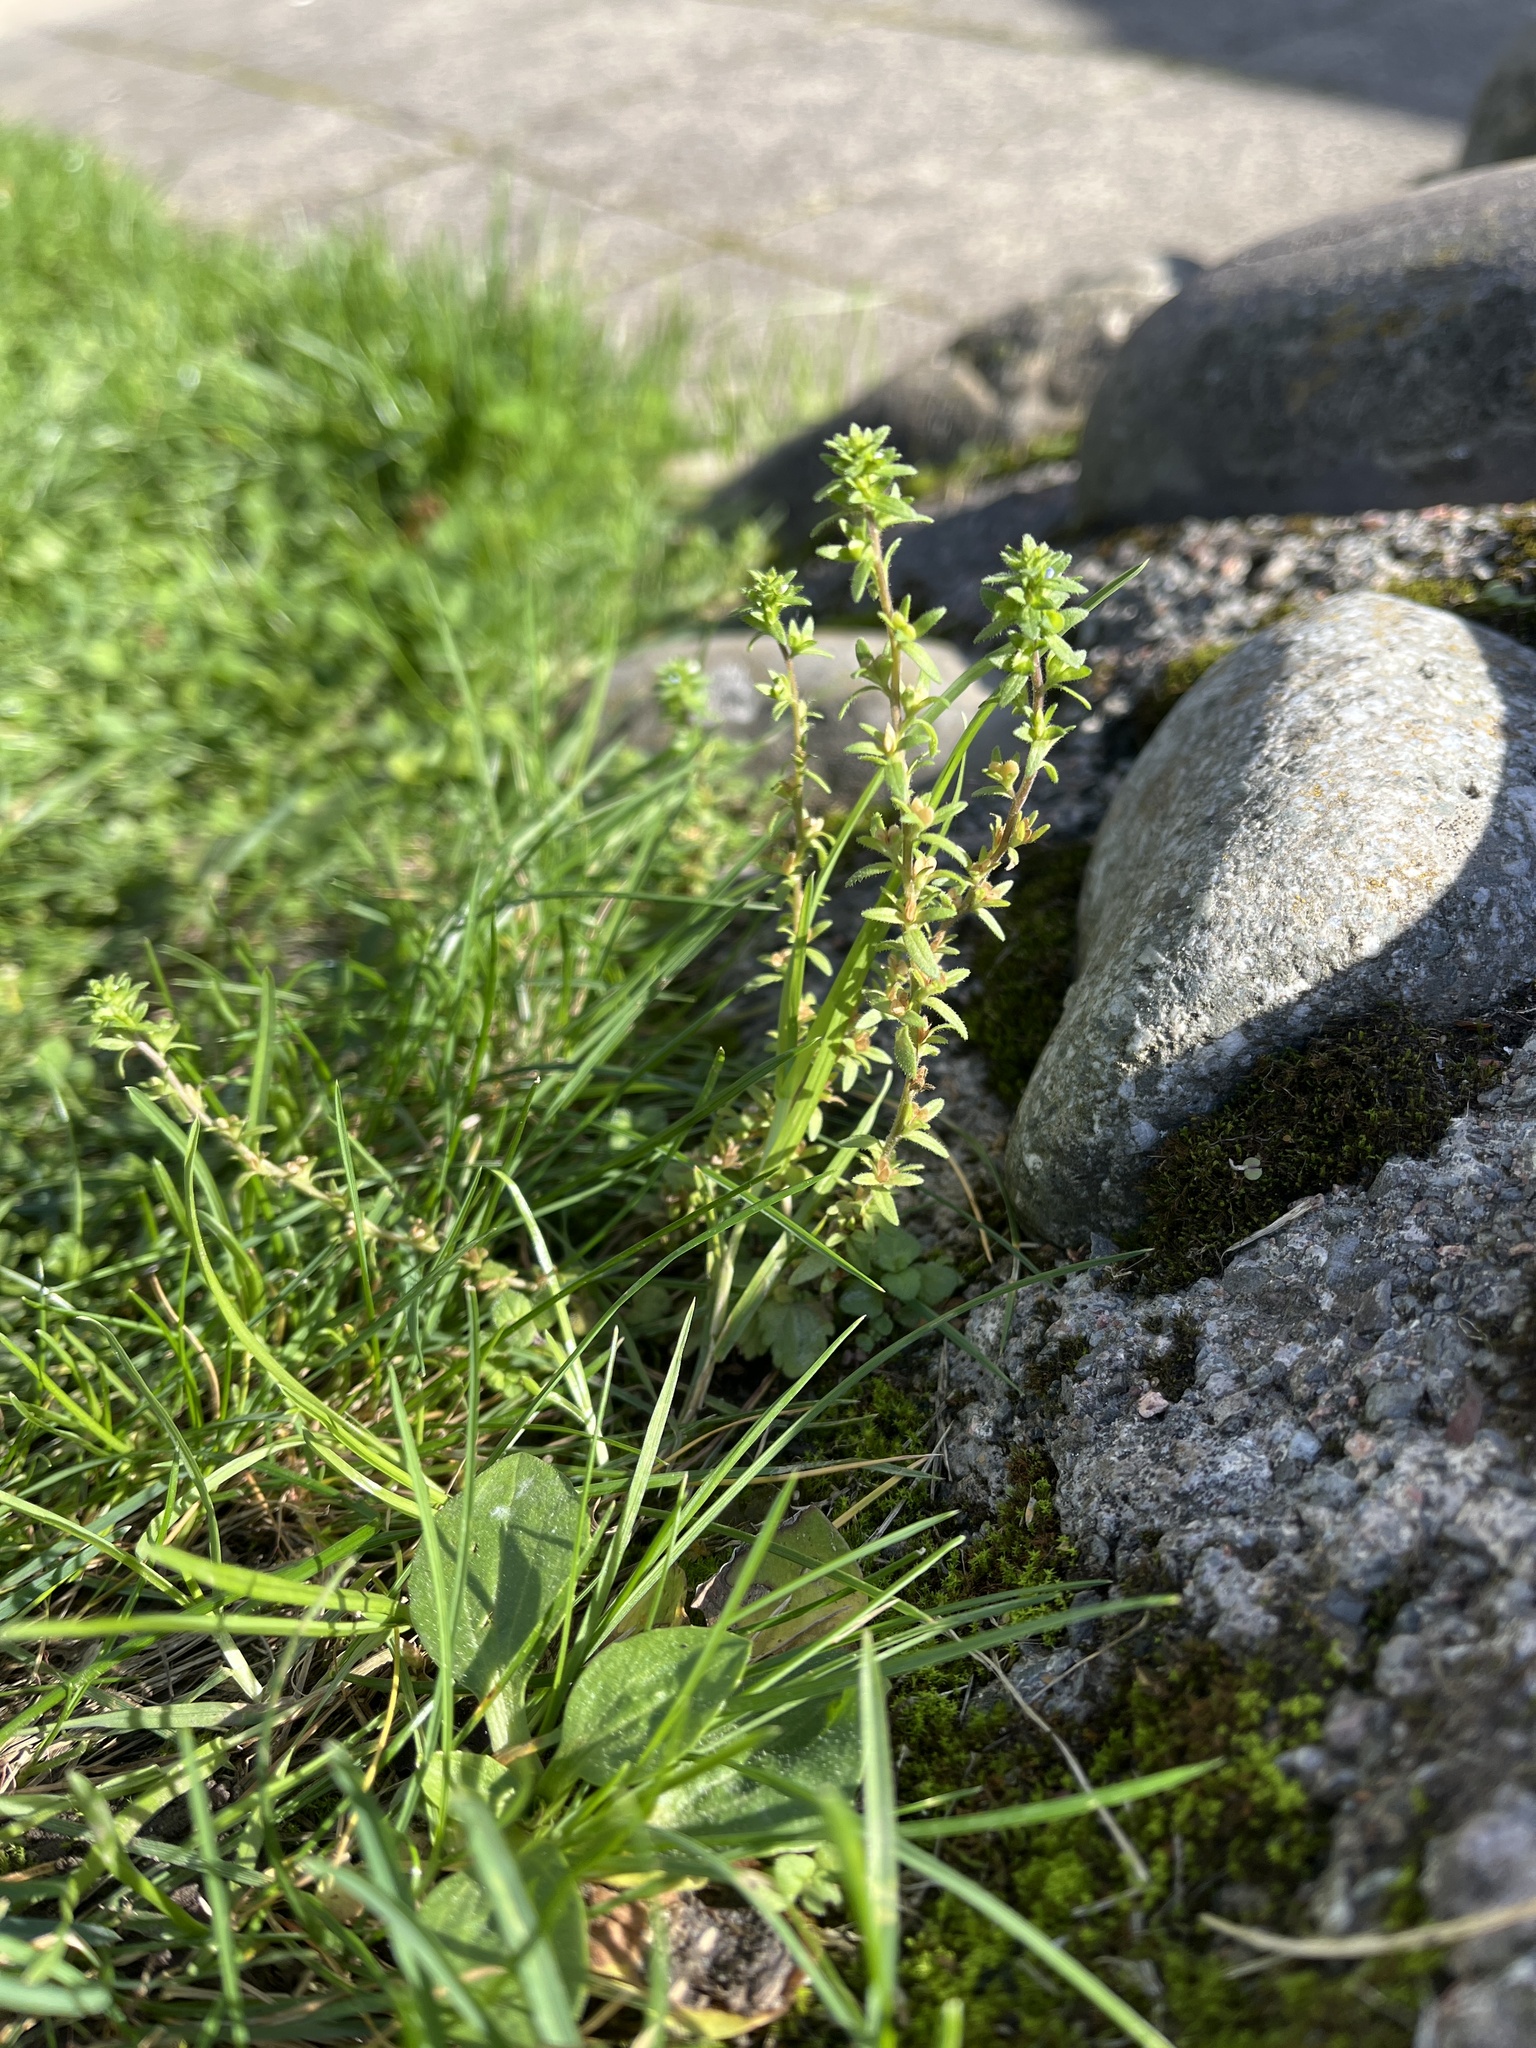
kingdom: Plantae
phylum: Tracheophyta
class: Magnoliopsida
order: Lamiales
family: Plantaginaceae
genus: Veronica
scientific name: Veronica arvensis
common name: Corn speedwell
